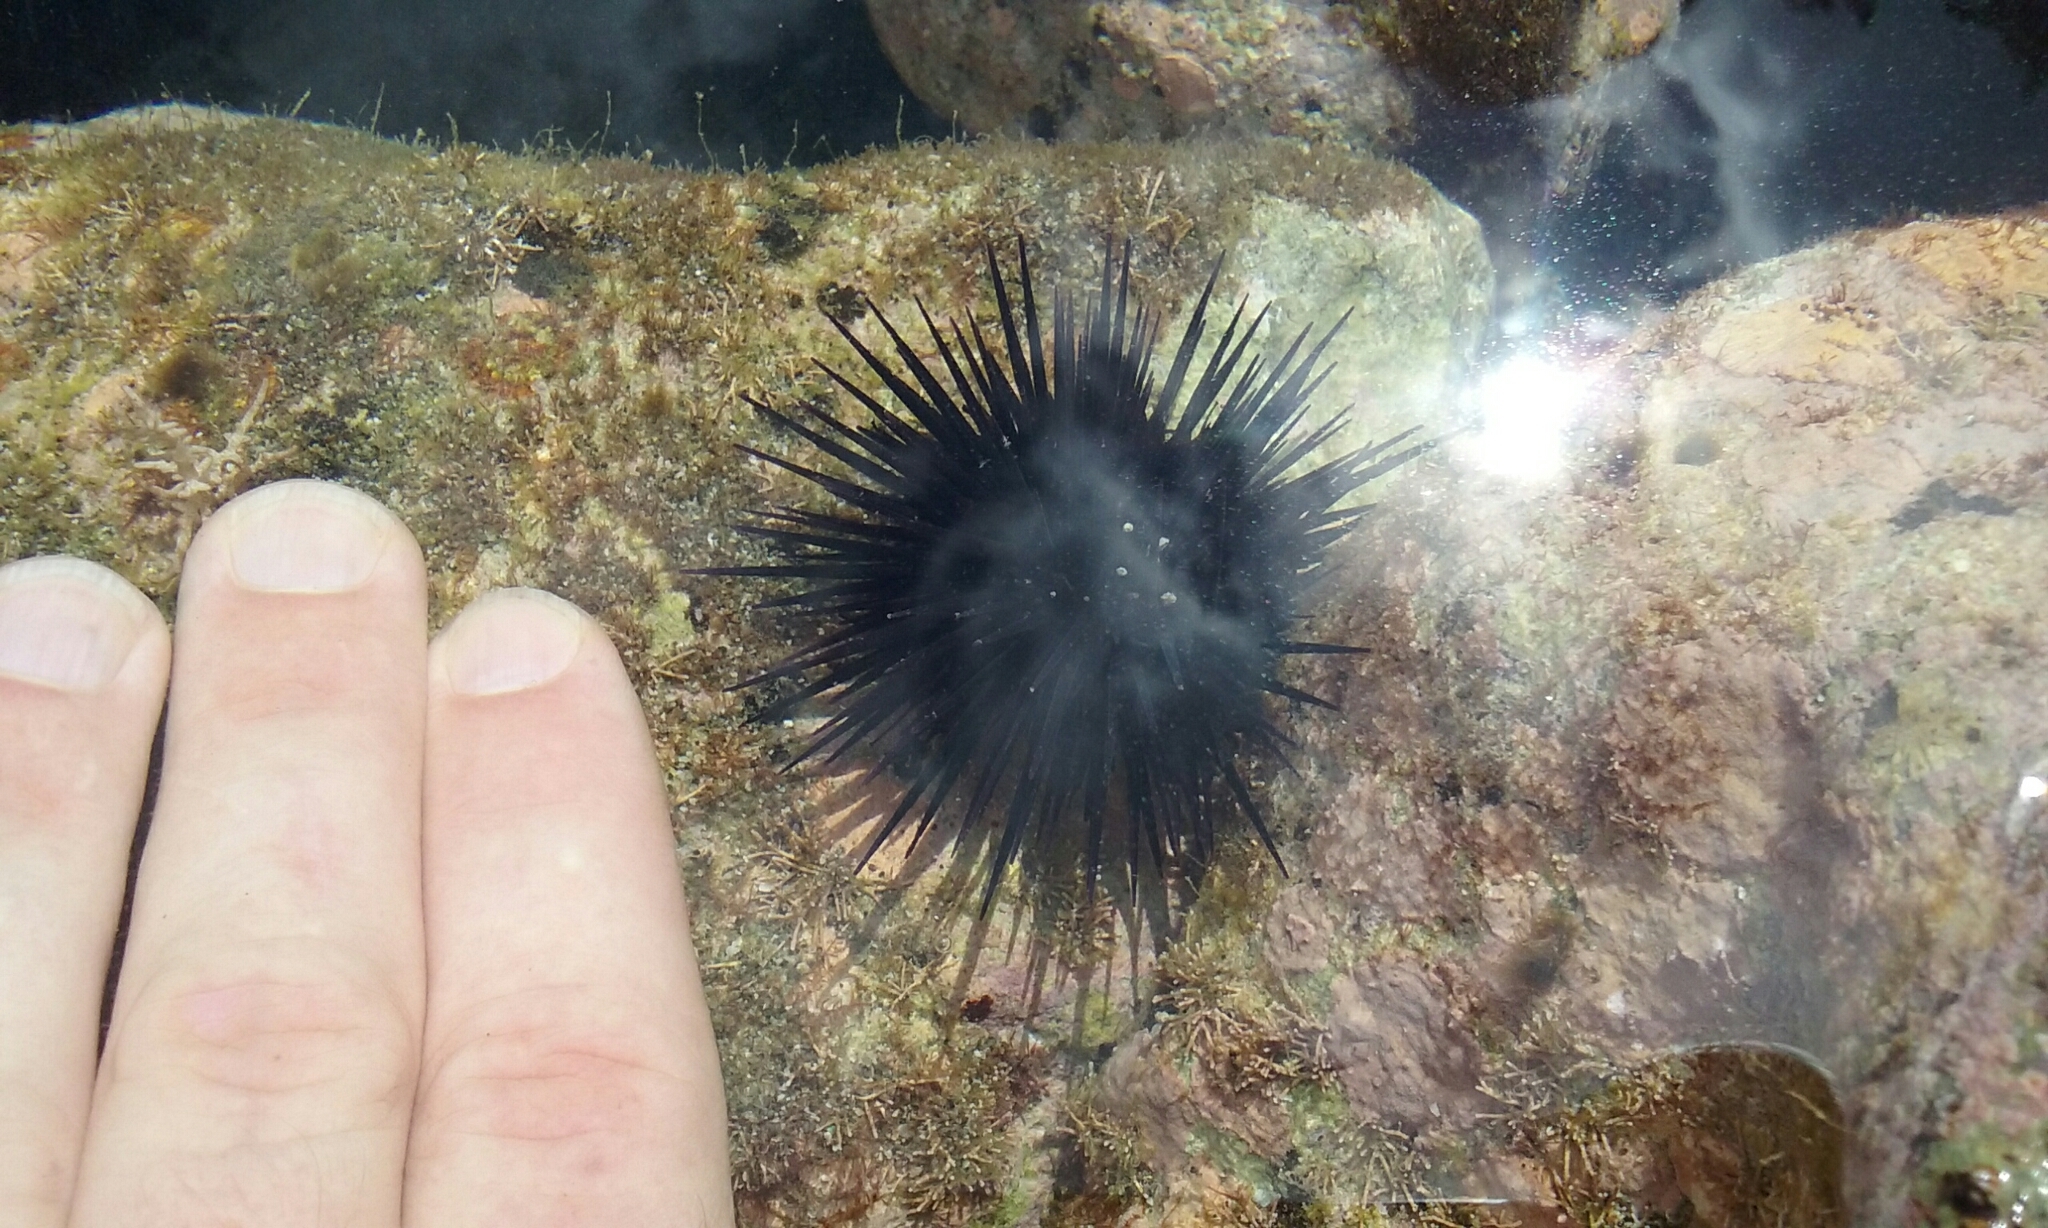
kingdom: Animalia
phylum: Echinodermata
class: Echinoidea
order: Camarodonta
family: Echinometridae
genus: Echinometra
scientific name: Echinometra vanbrunti
